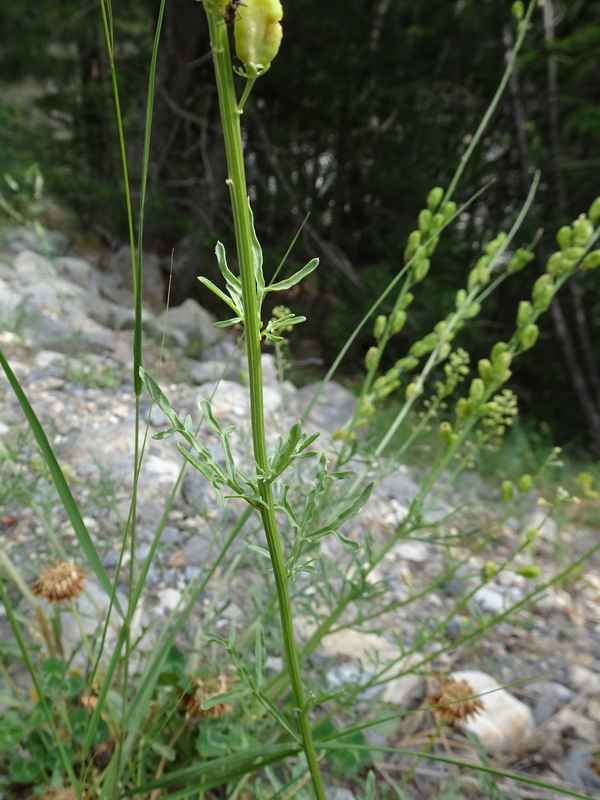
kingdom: Plantae
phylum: Tracheophyta
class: Magnoliopsida
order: Brassicales
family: Resedaceae
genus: Reseda
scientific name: Reseda lutea
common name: Wild mignonette
